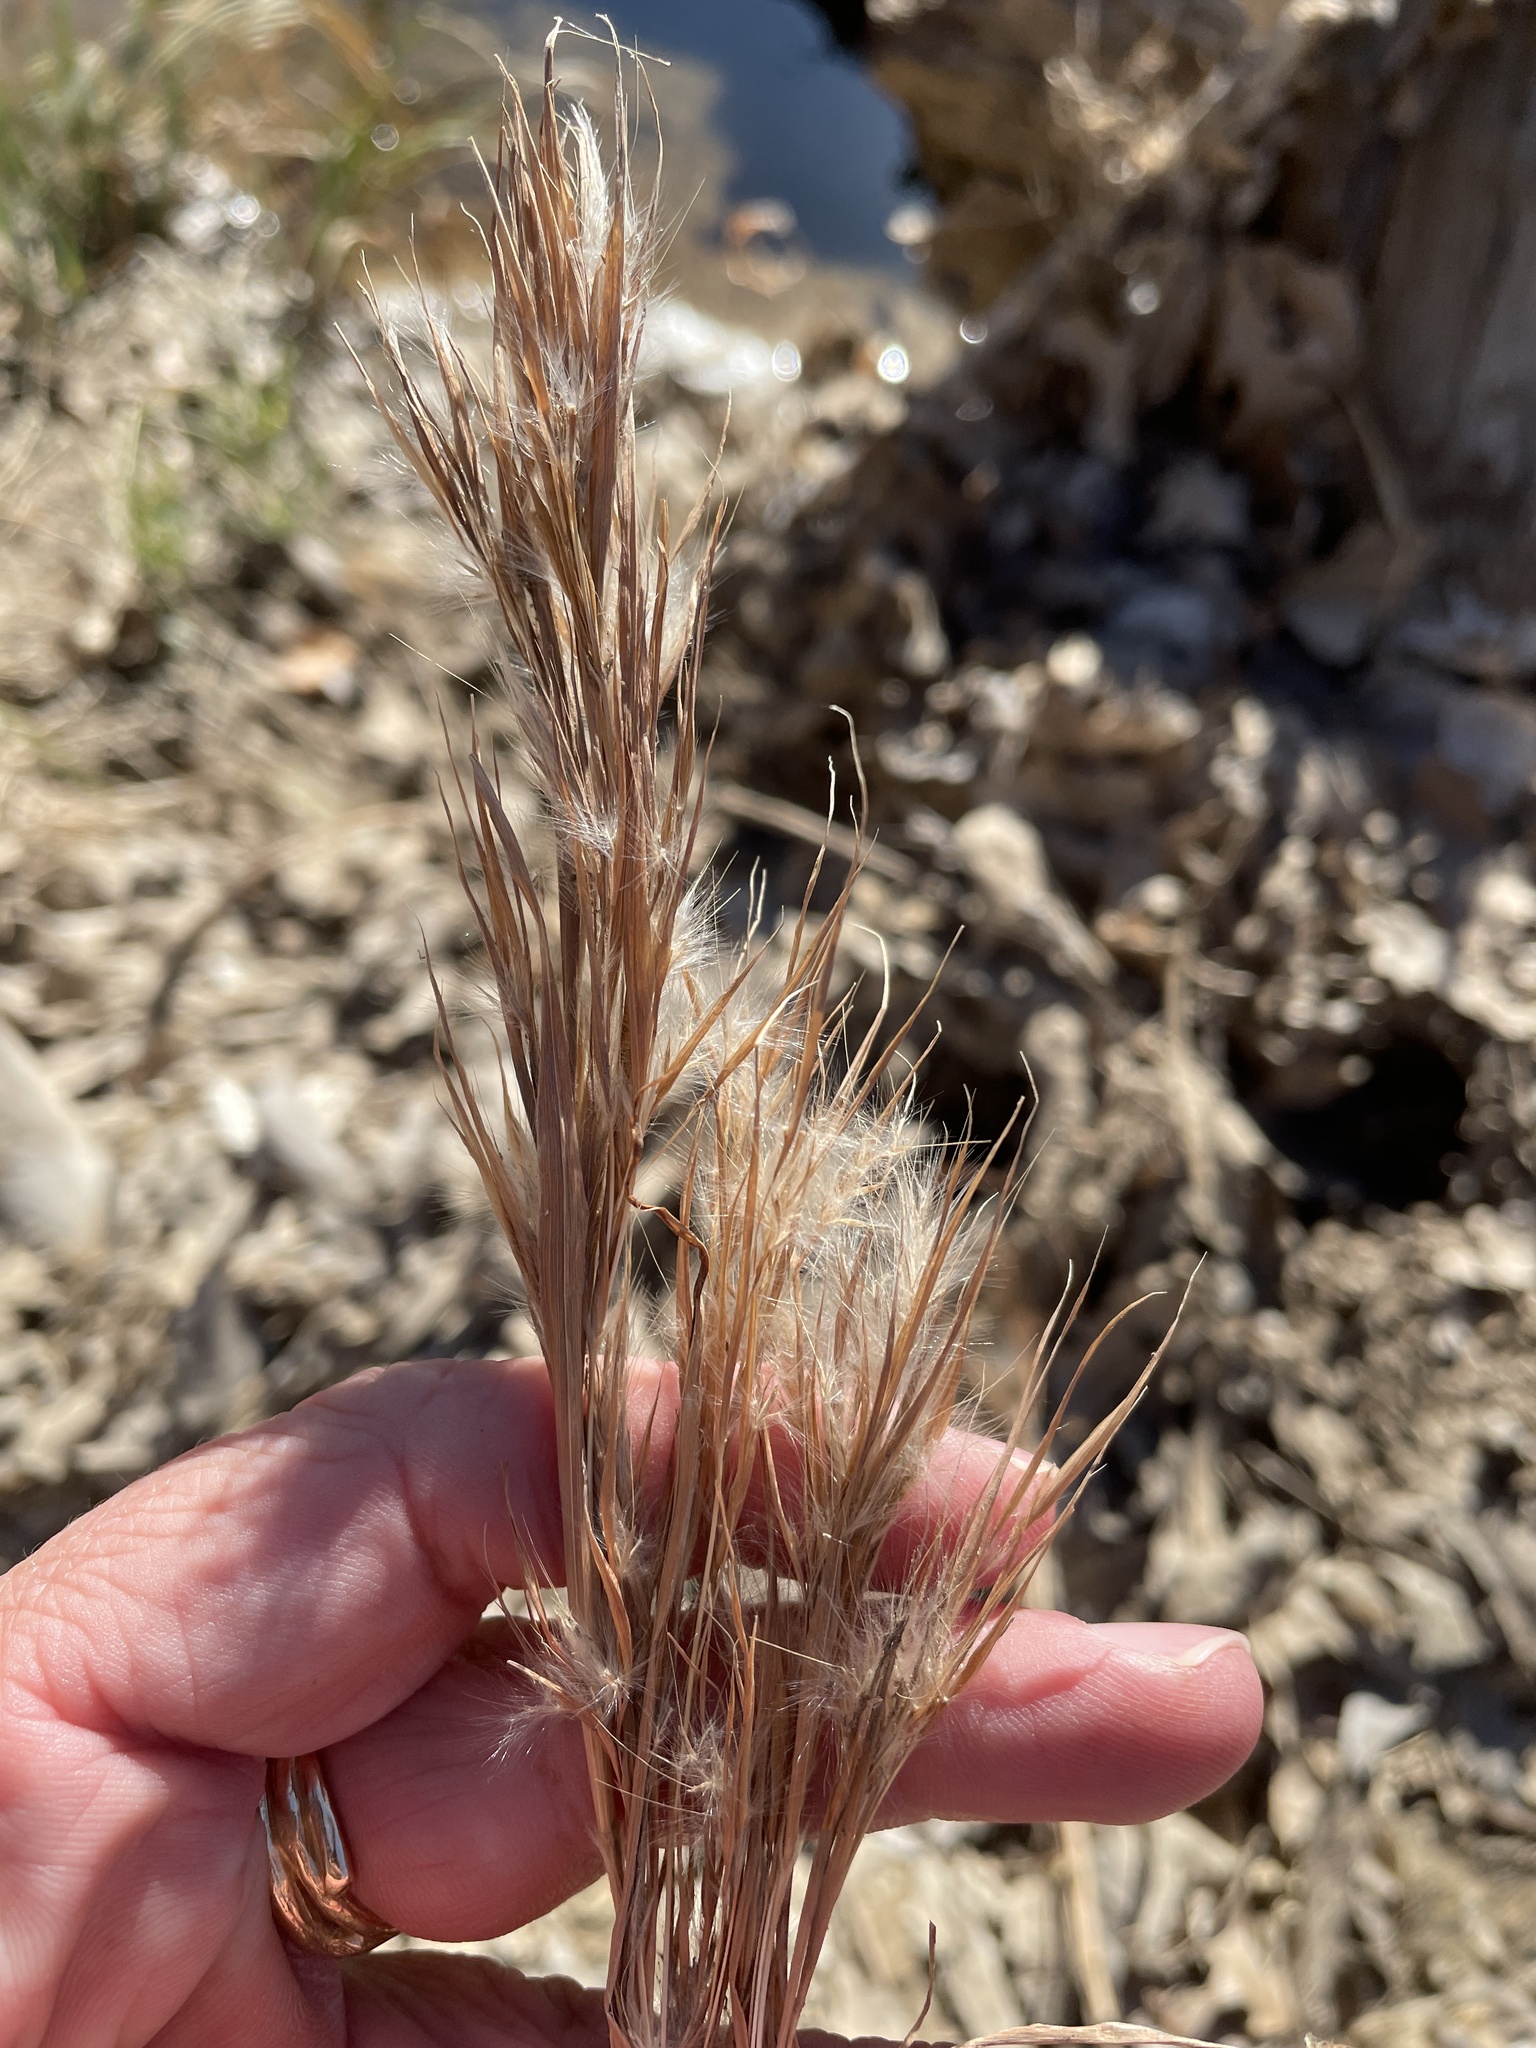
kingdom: Plantae
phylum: Tracheophyta
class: Liliopsida
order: Poales
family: Poaceae
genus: Andropogon
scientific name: Andropogon tenuispatheus
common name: Bushy bluestem
